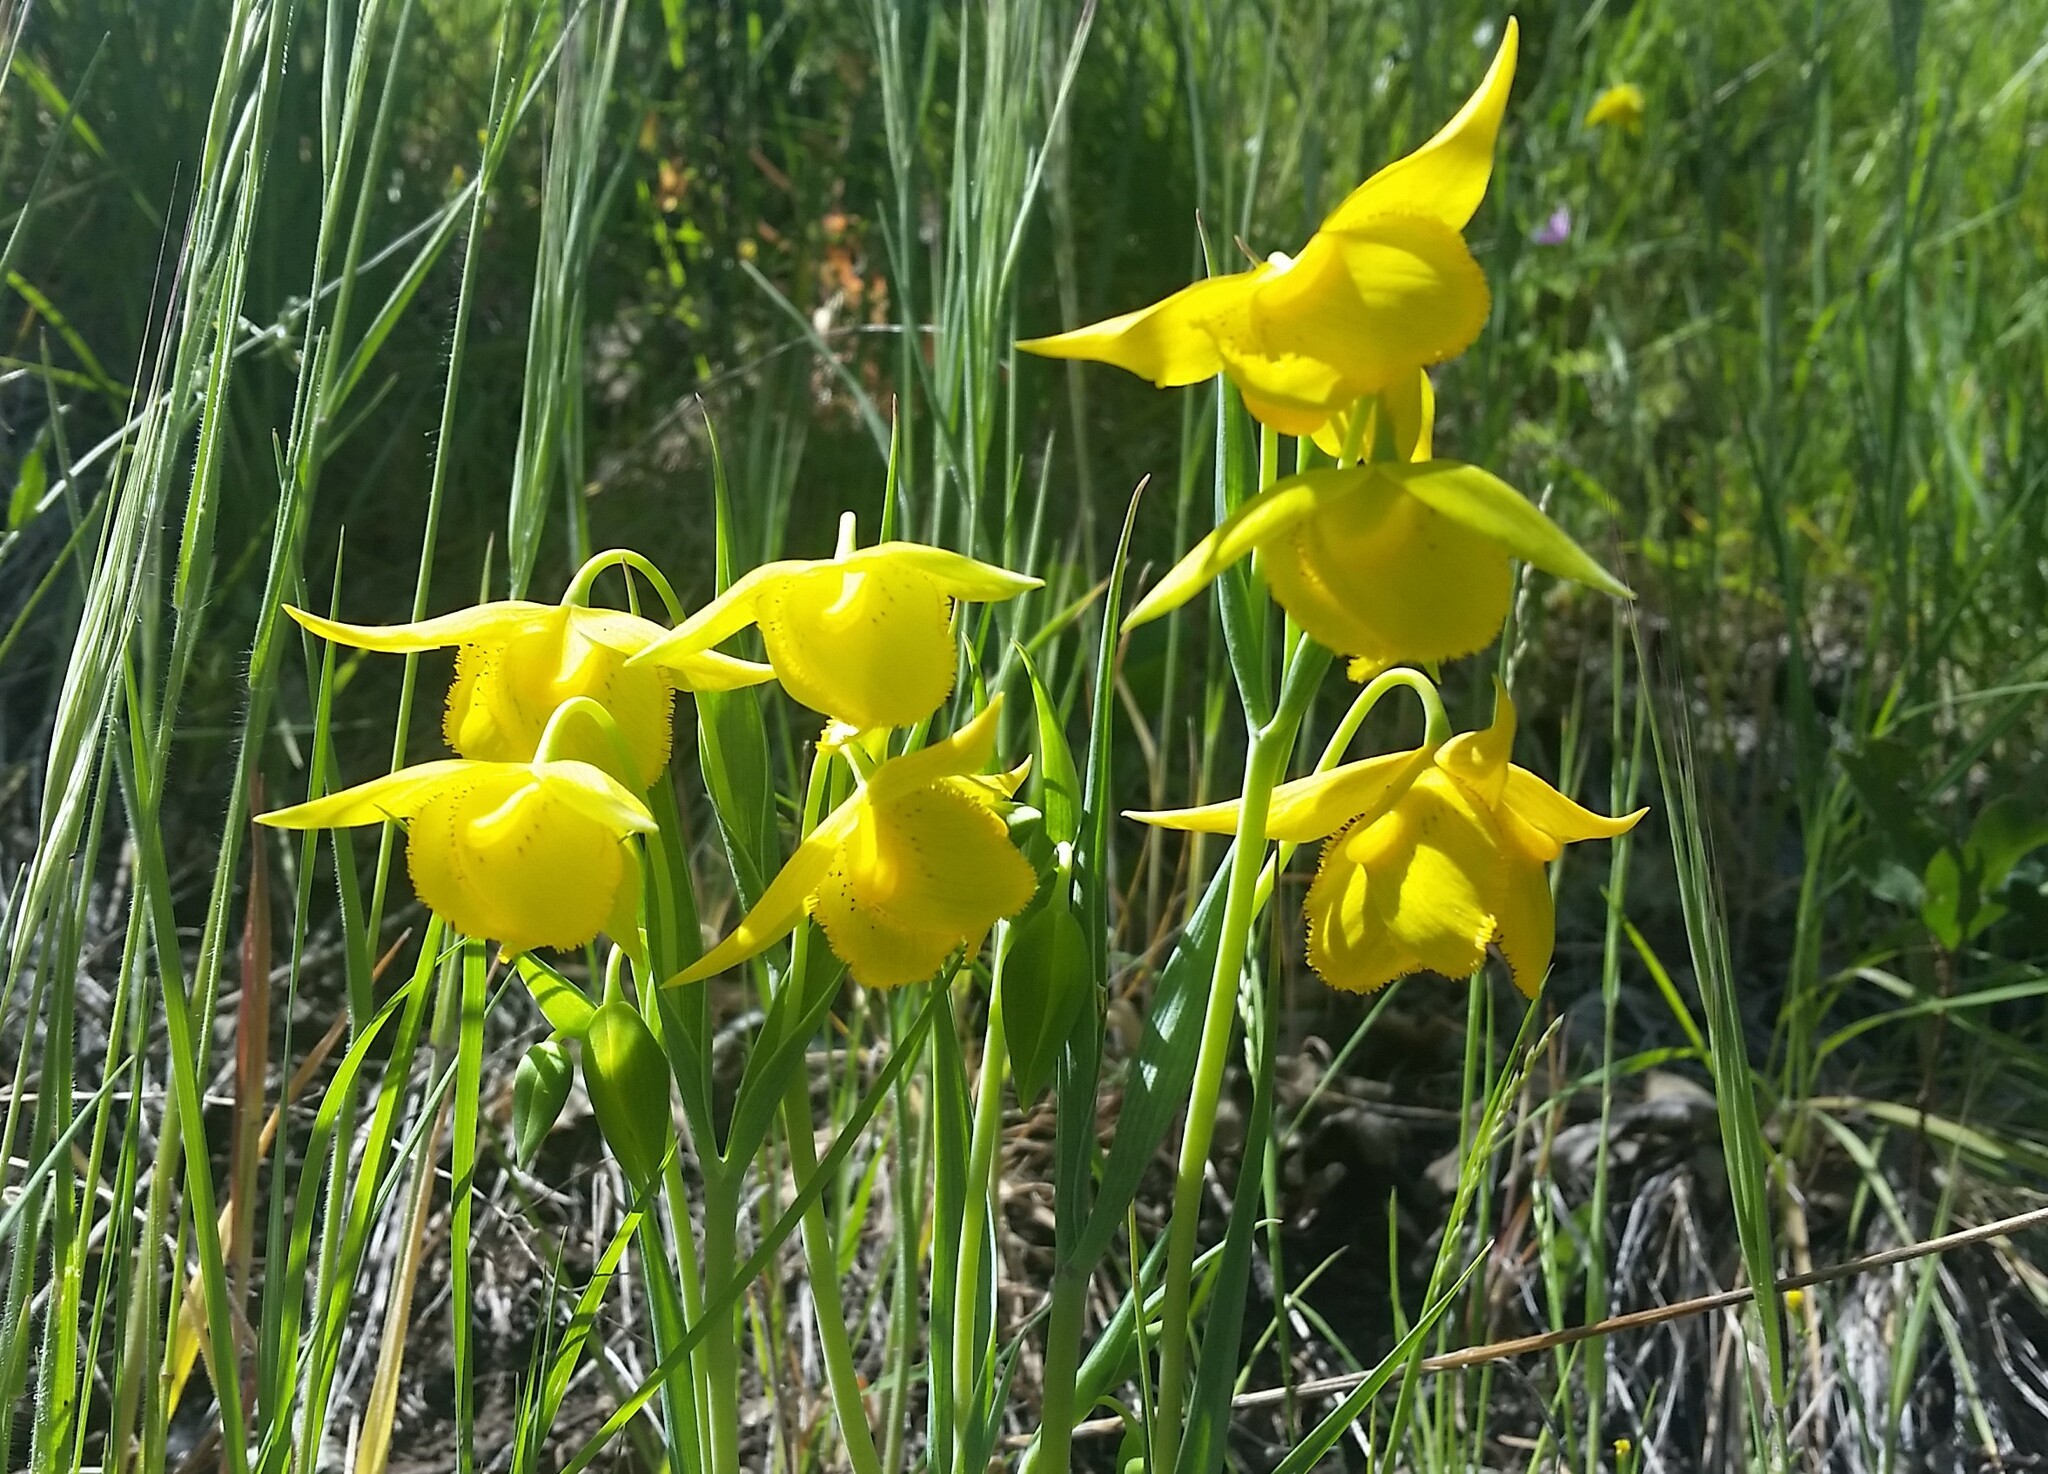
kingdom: Plantae
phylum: Tracheophyta
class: Liliopsida
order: Liliales
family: Liliaceae
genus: Calochortus
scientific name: Calochortus amabilis
